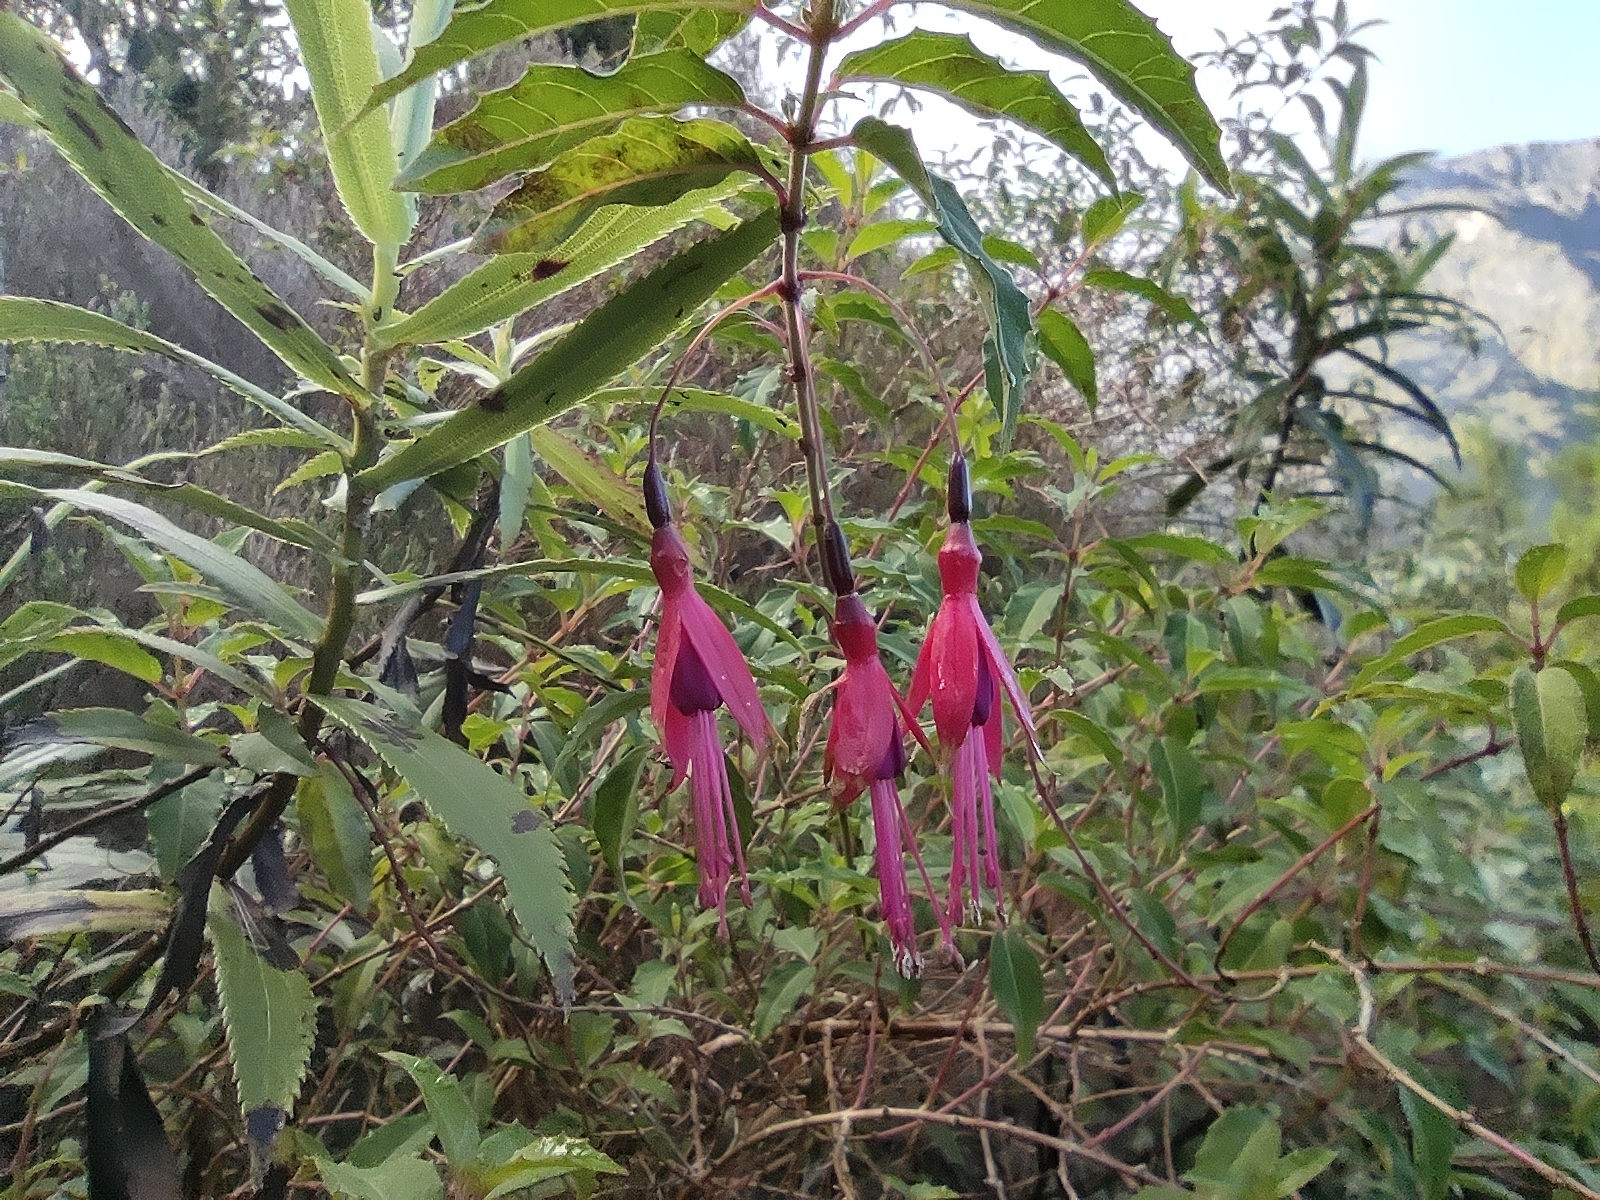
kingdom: Plantae
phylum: Tracheophyta
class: Magnoliopsida
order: Myrtales
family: Onagraceae
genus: Fuchsia
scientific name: Fuchsia magellanica
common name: Hardy fuchsia
